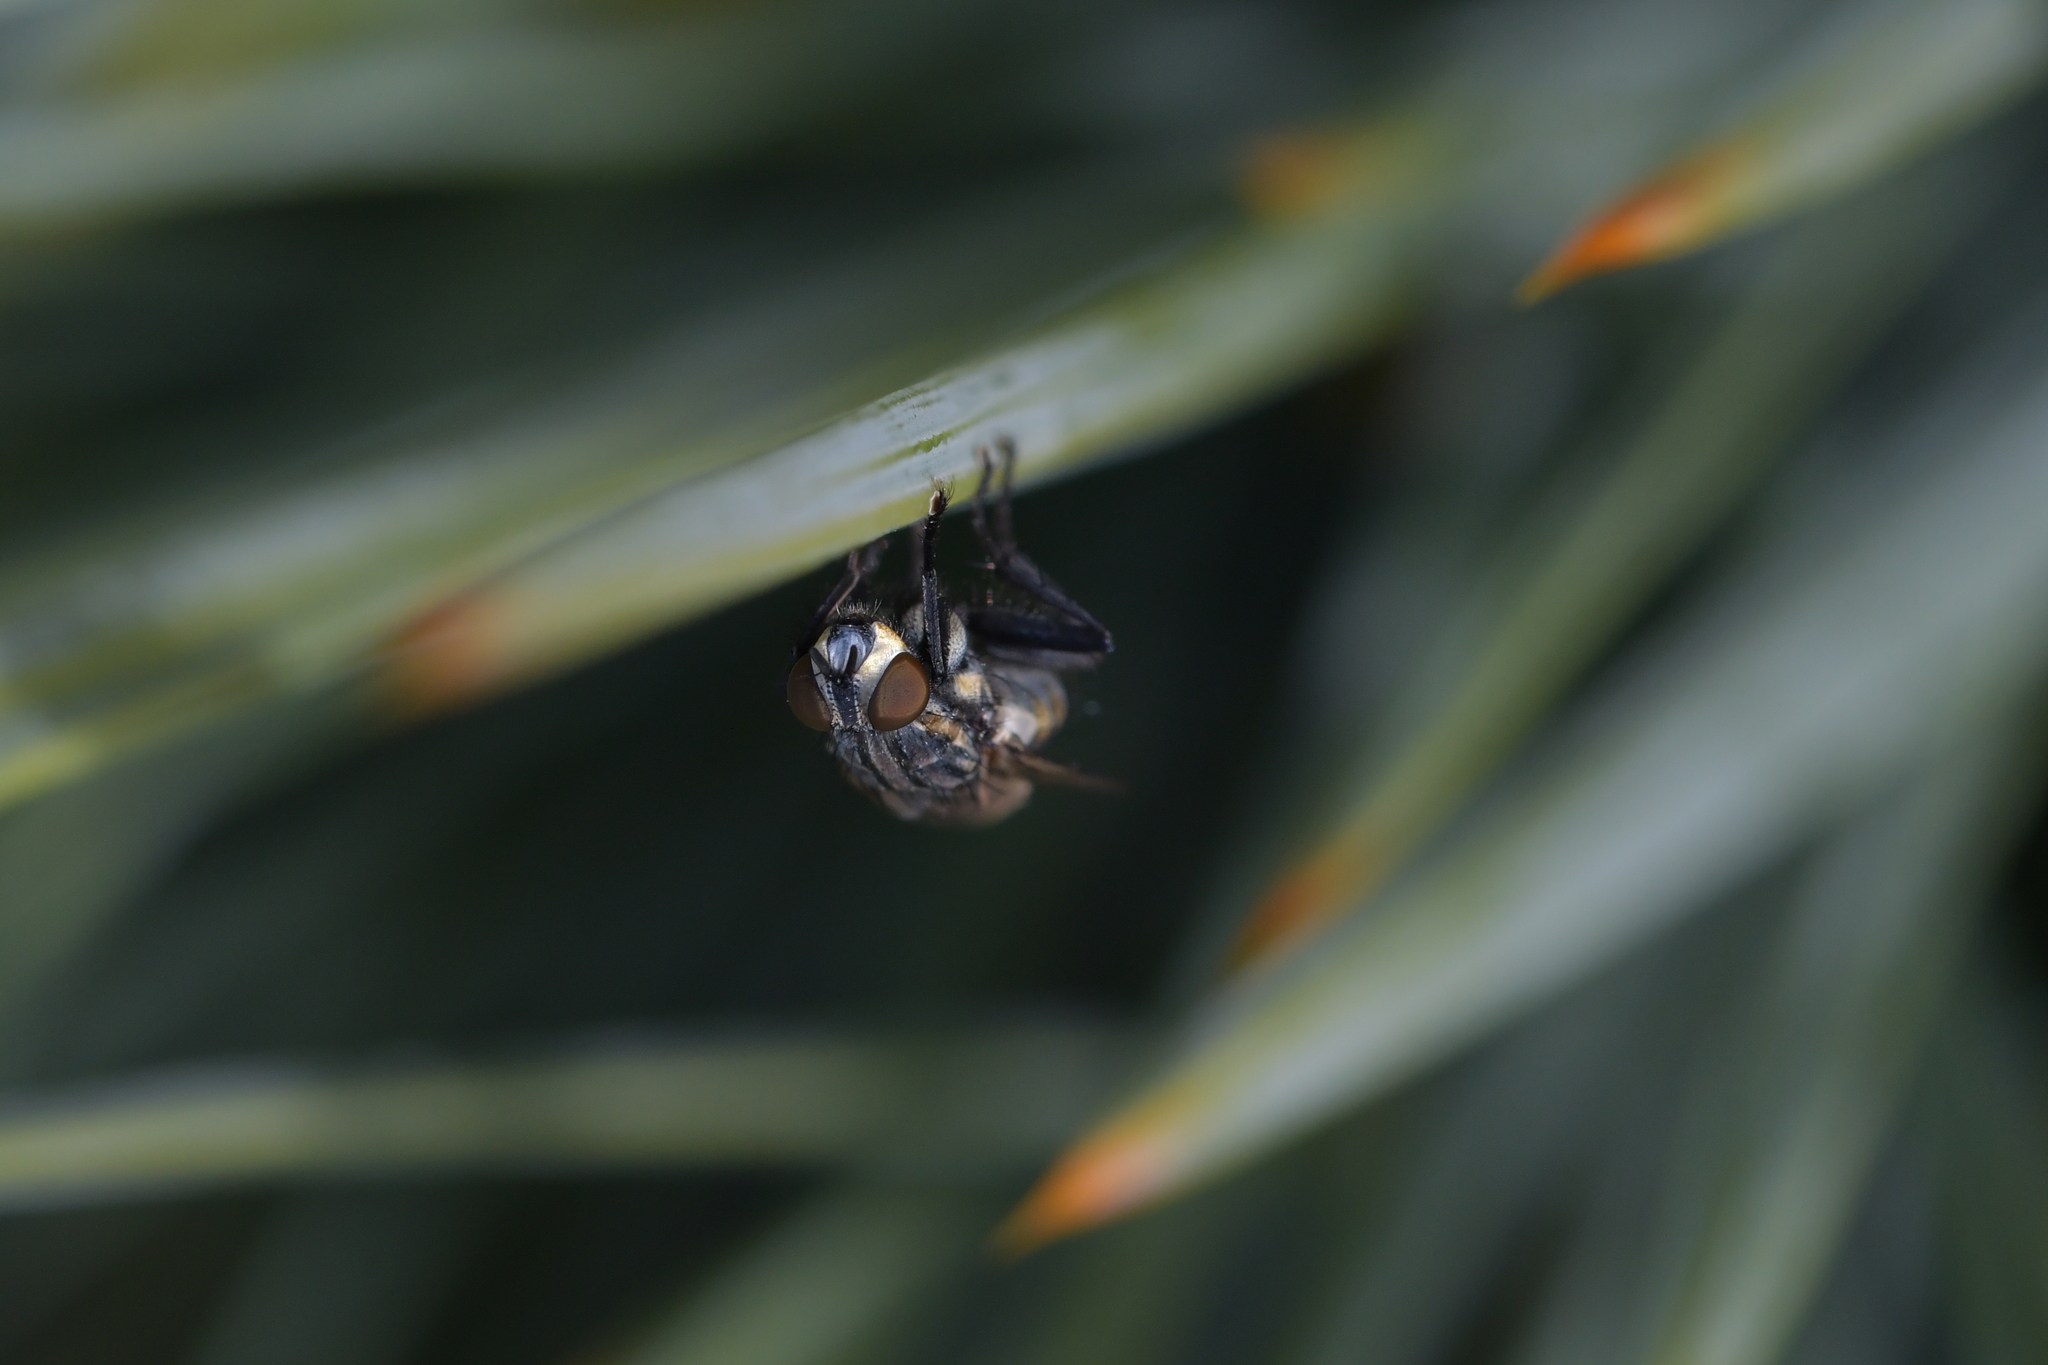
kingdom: Animalia
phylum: Arthropoda
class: Insecta
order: Diptera
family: Sarcophagidae
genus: Oxysarcodexia
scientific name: Oxysarcodexia varia
